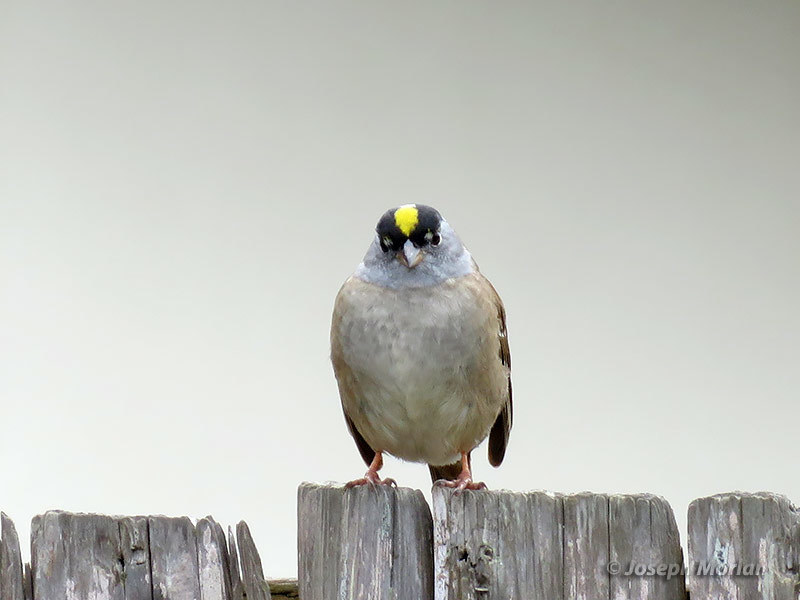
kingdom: Animalia
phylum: Chordata
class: Aves
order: Passeriformes
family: Passerellidae
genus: Zonotrichia
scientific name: Zonotrichia atricapilla
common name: Golden-crowned sparrow
